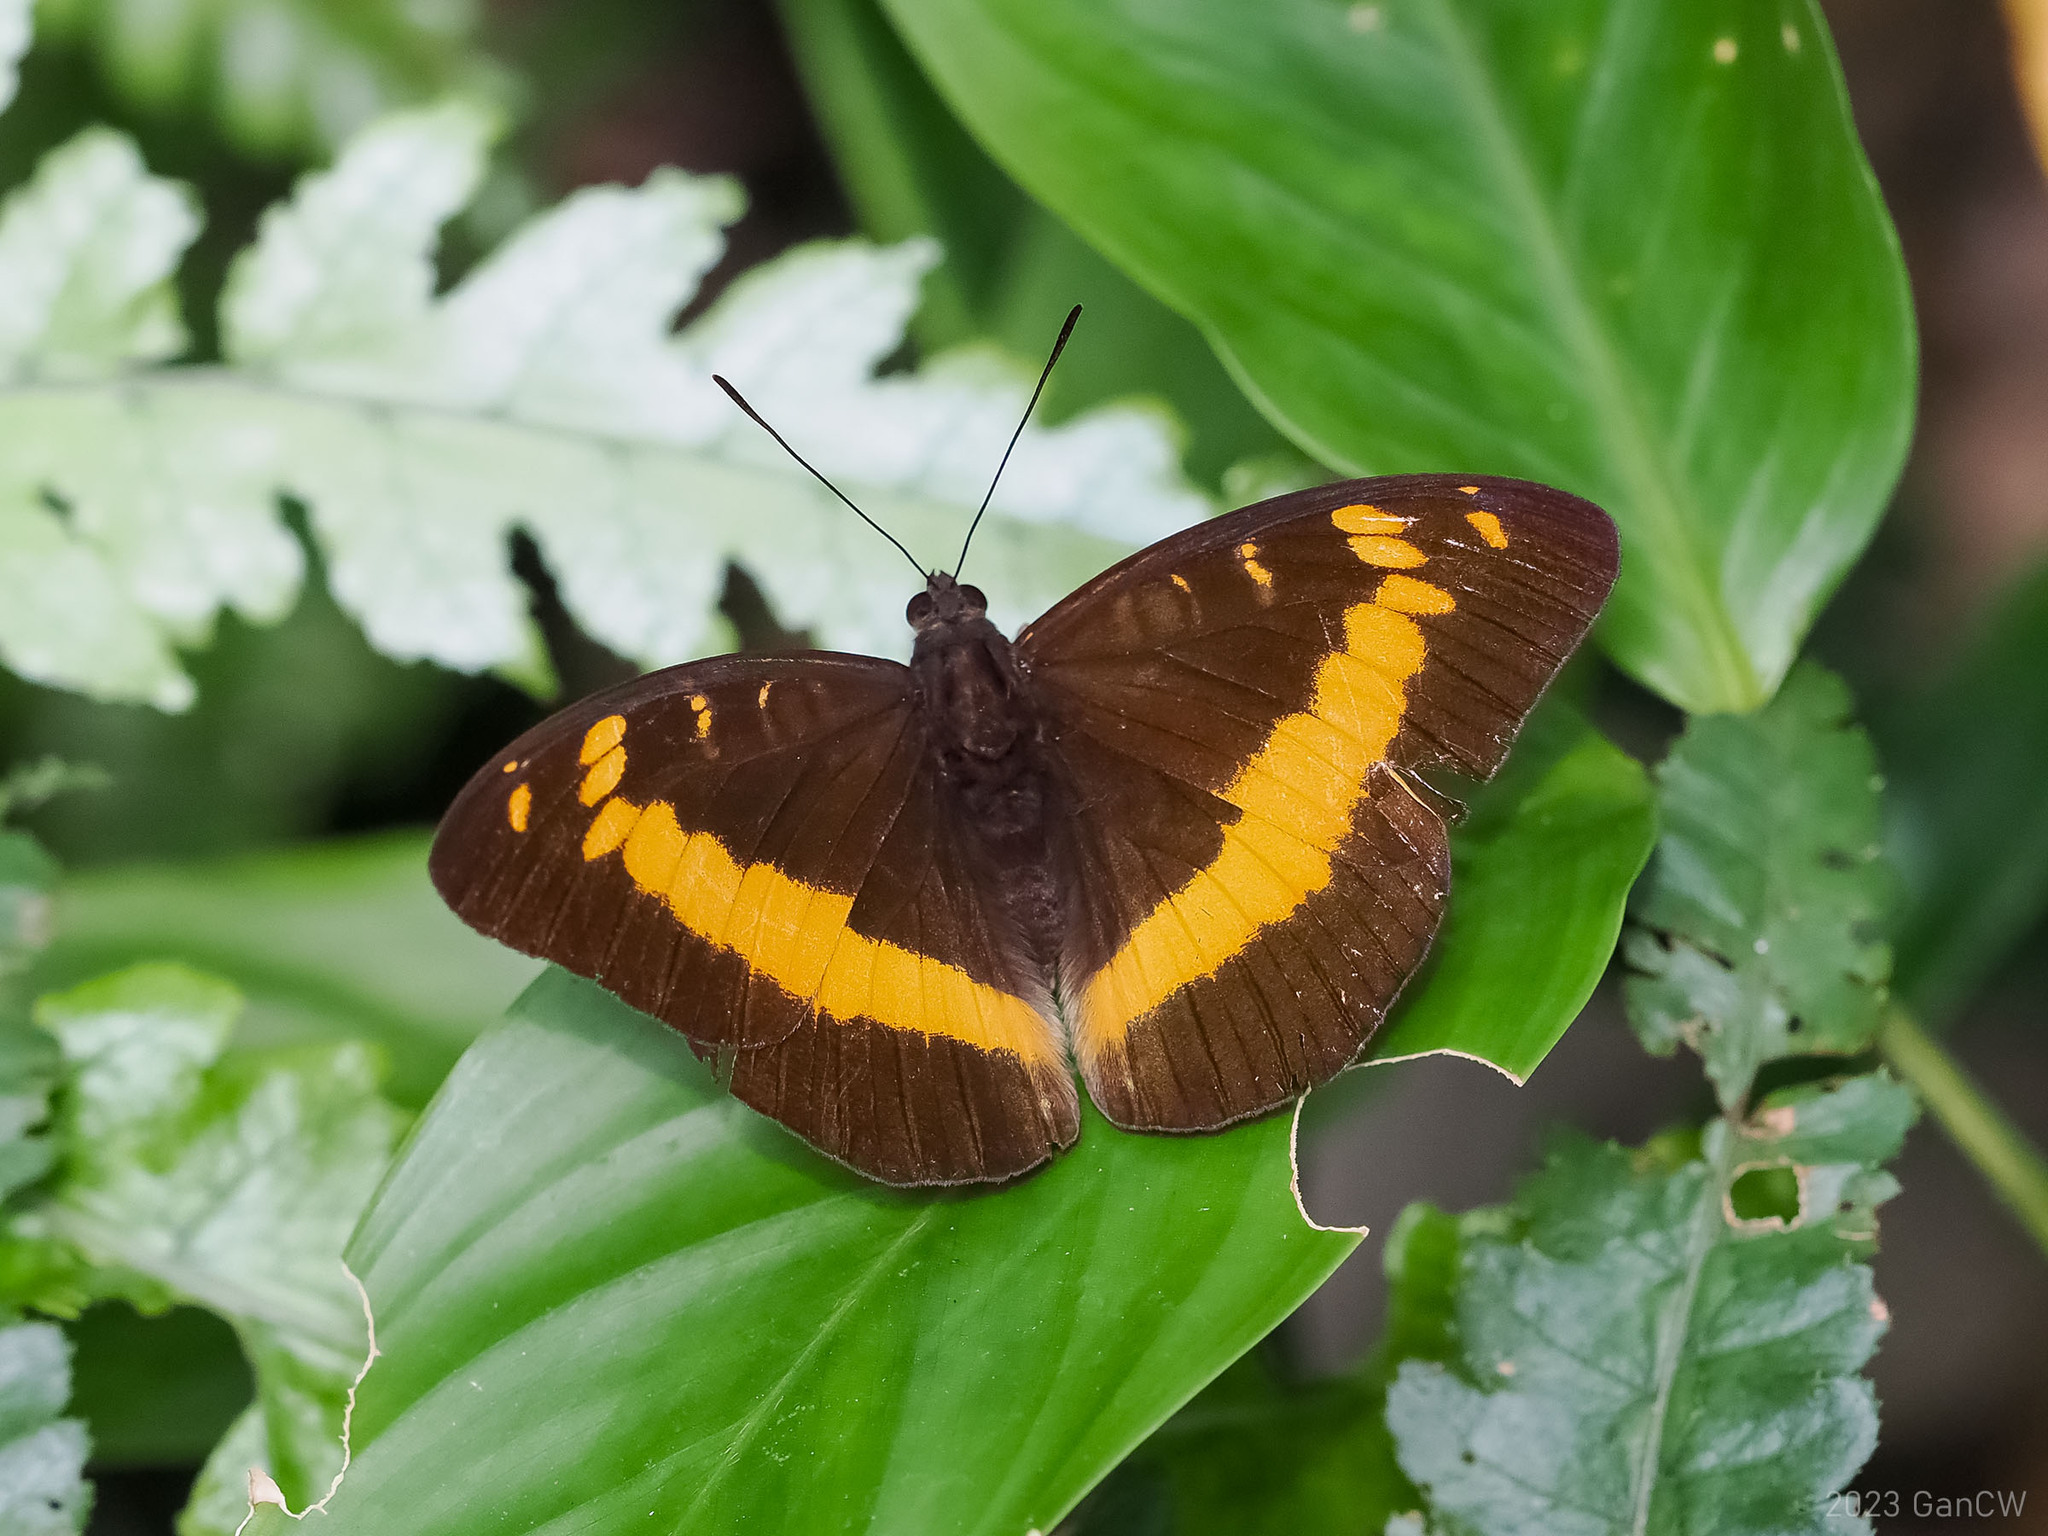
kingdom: Animalia
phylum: Arthropoda
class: Insecta
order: Lepidoptera
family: Nymphalidae
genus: Lexias
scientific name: Lexias aeropa
